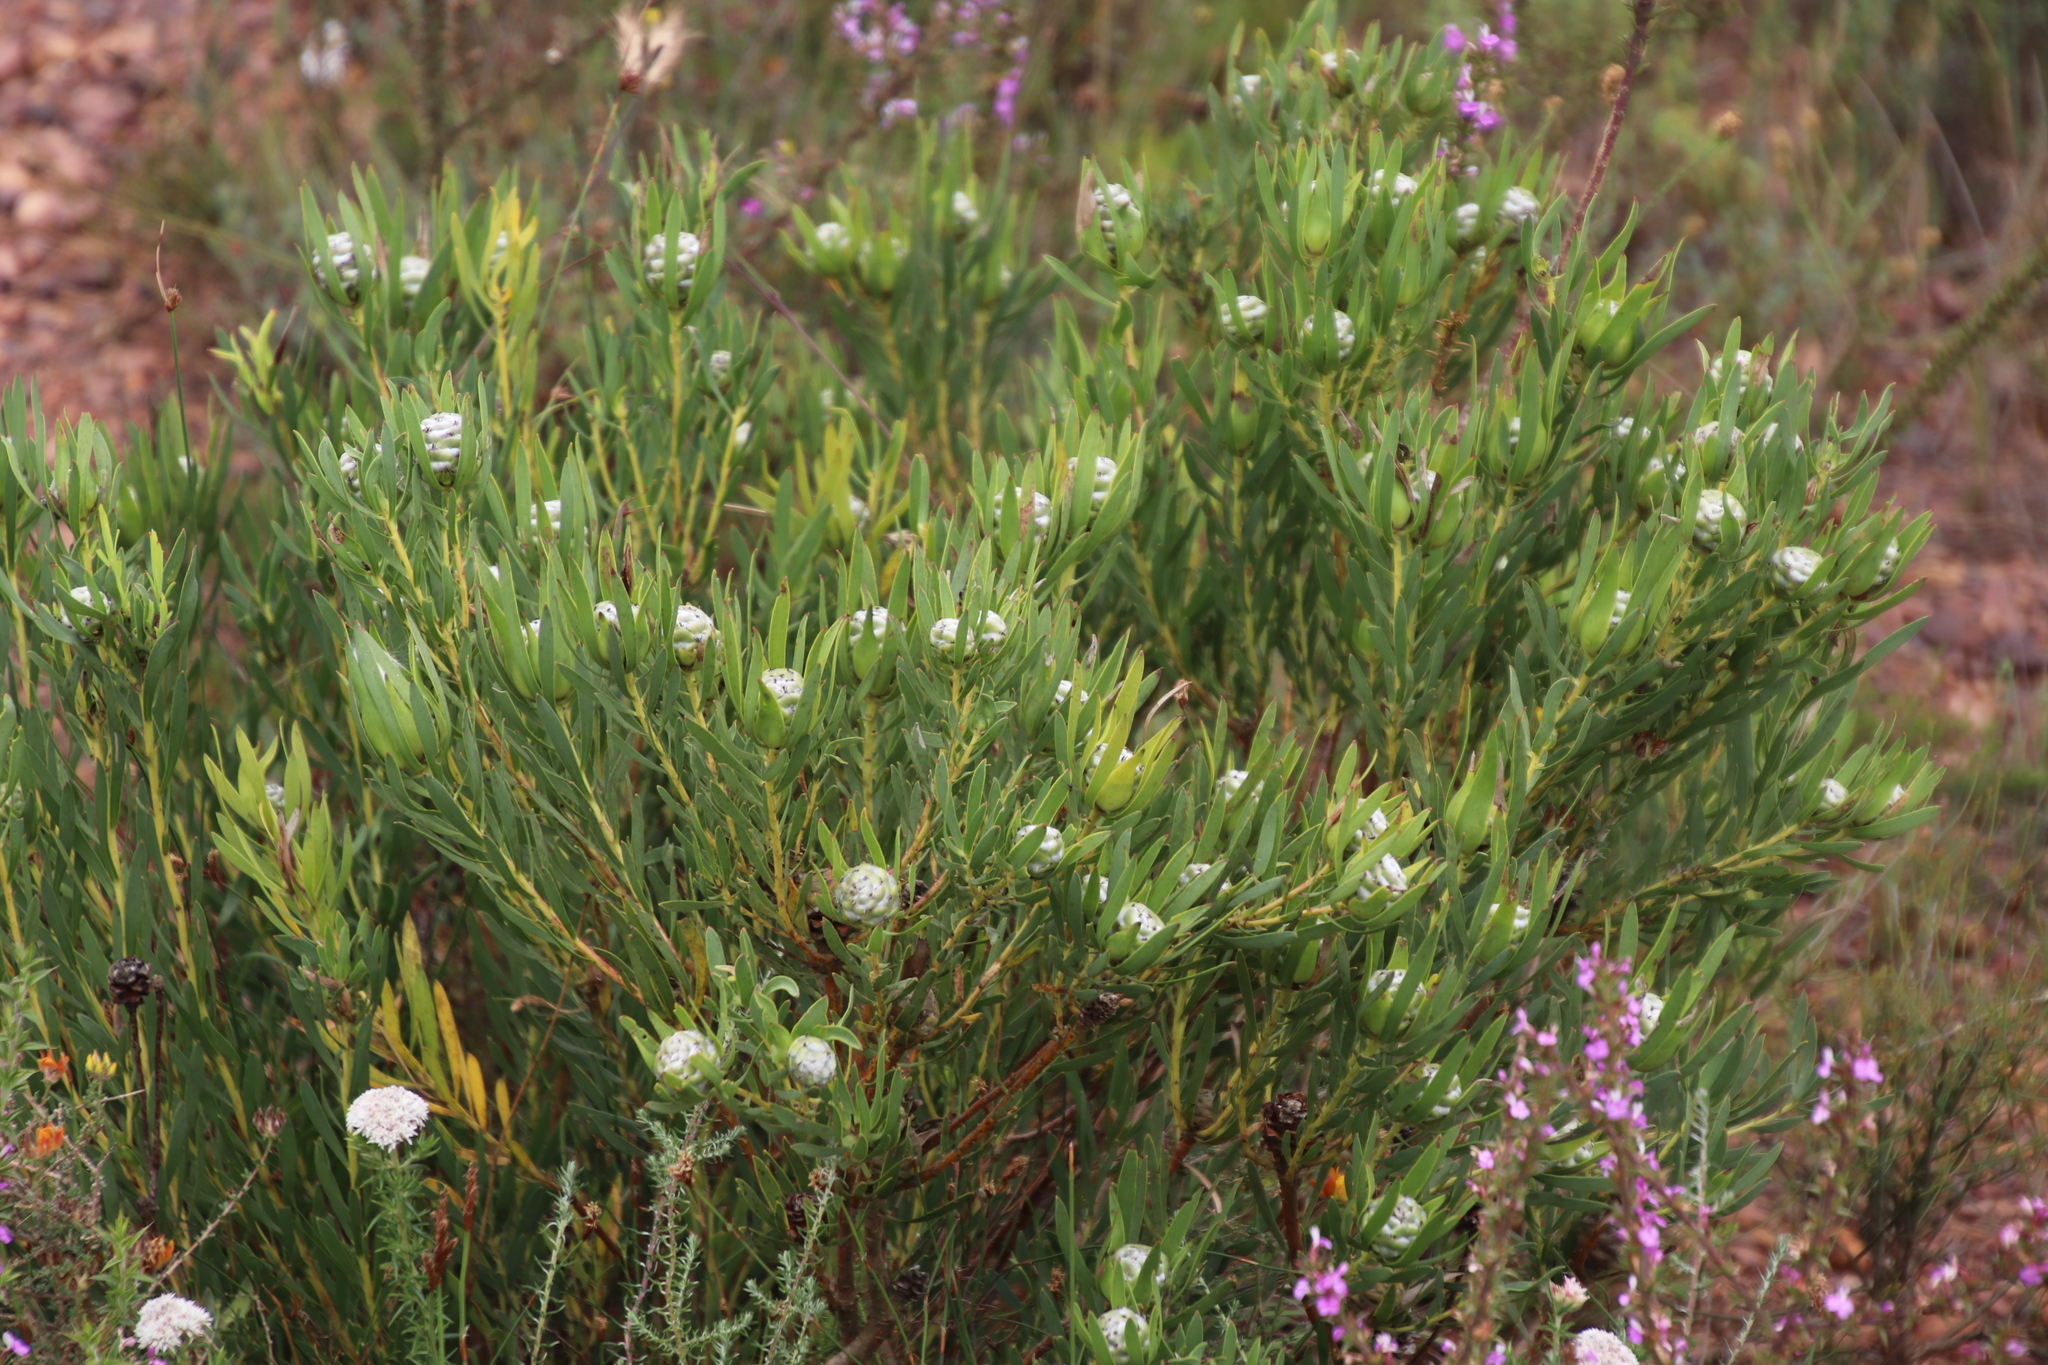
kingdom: Plantae
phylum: Tracheophyta
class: Magnoliopsida
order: Proteales
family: Proteaceae
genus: Leucadendron
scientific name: Leucadendron salignum
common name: Common sunshine conebush
